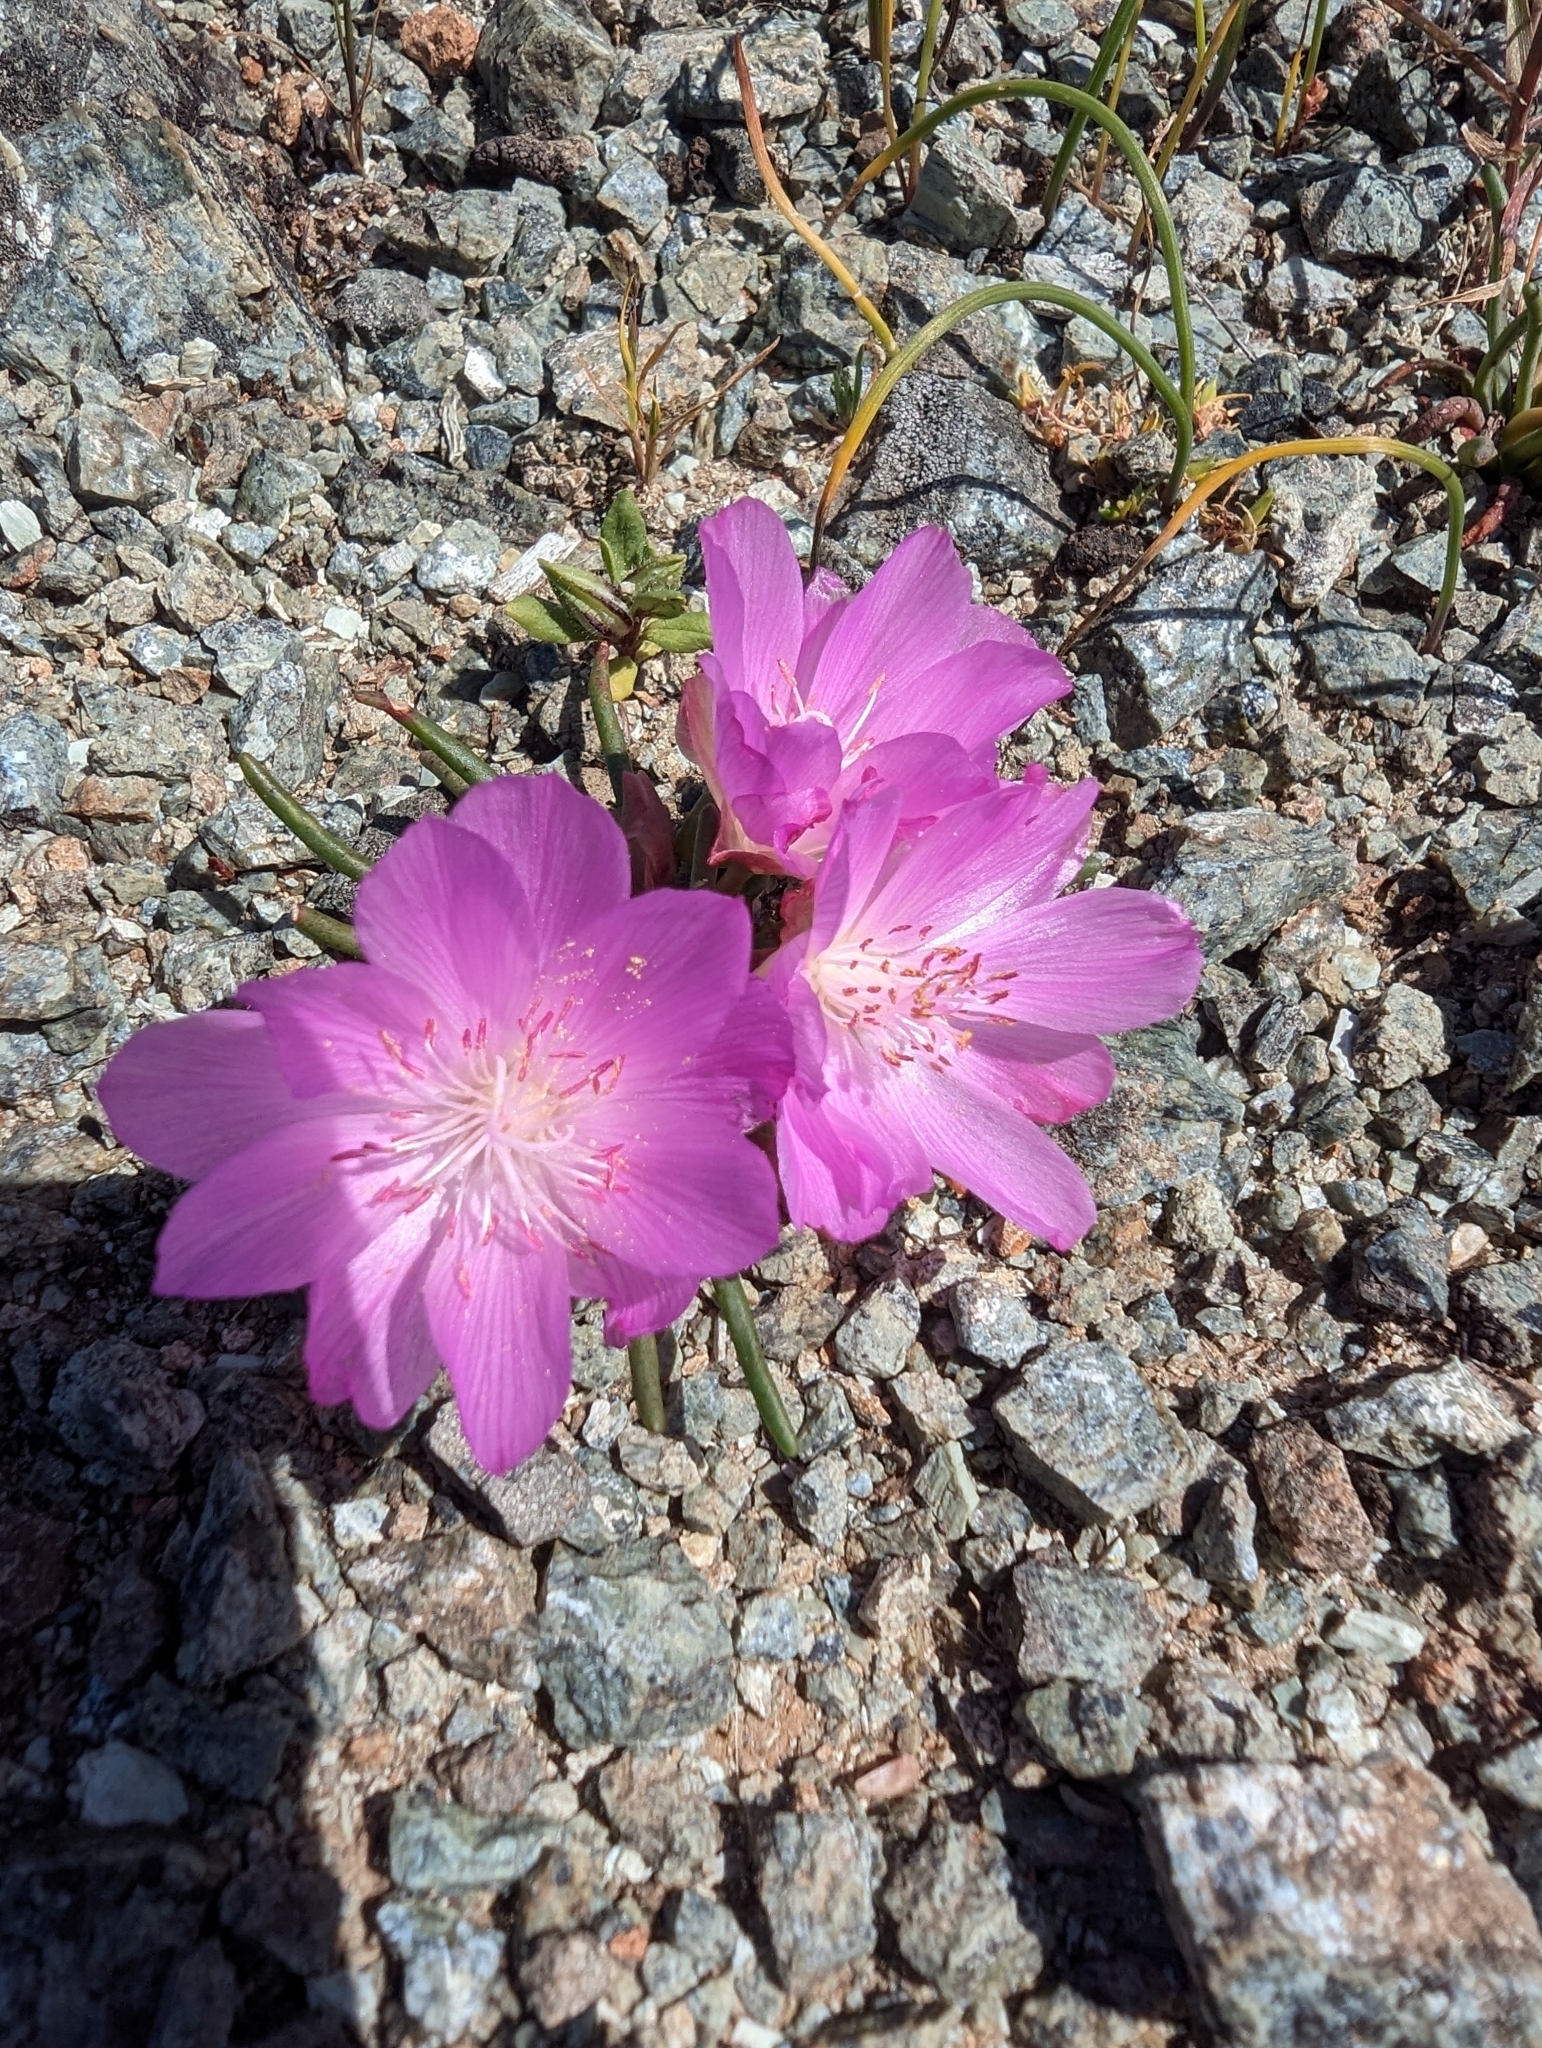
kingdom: Plantae
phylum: Tracheophyta
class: Magnoliopsida
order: Caryophyllales
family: Montiaceae
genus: Lewisia
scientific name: Lewisia rediviva
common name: Bitter-root
